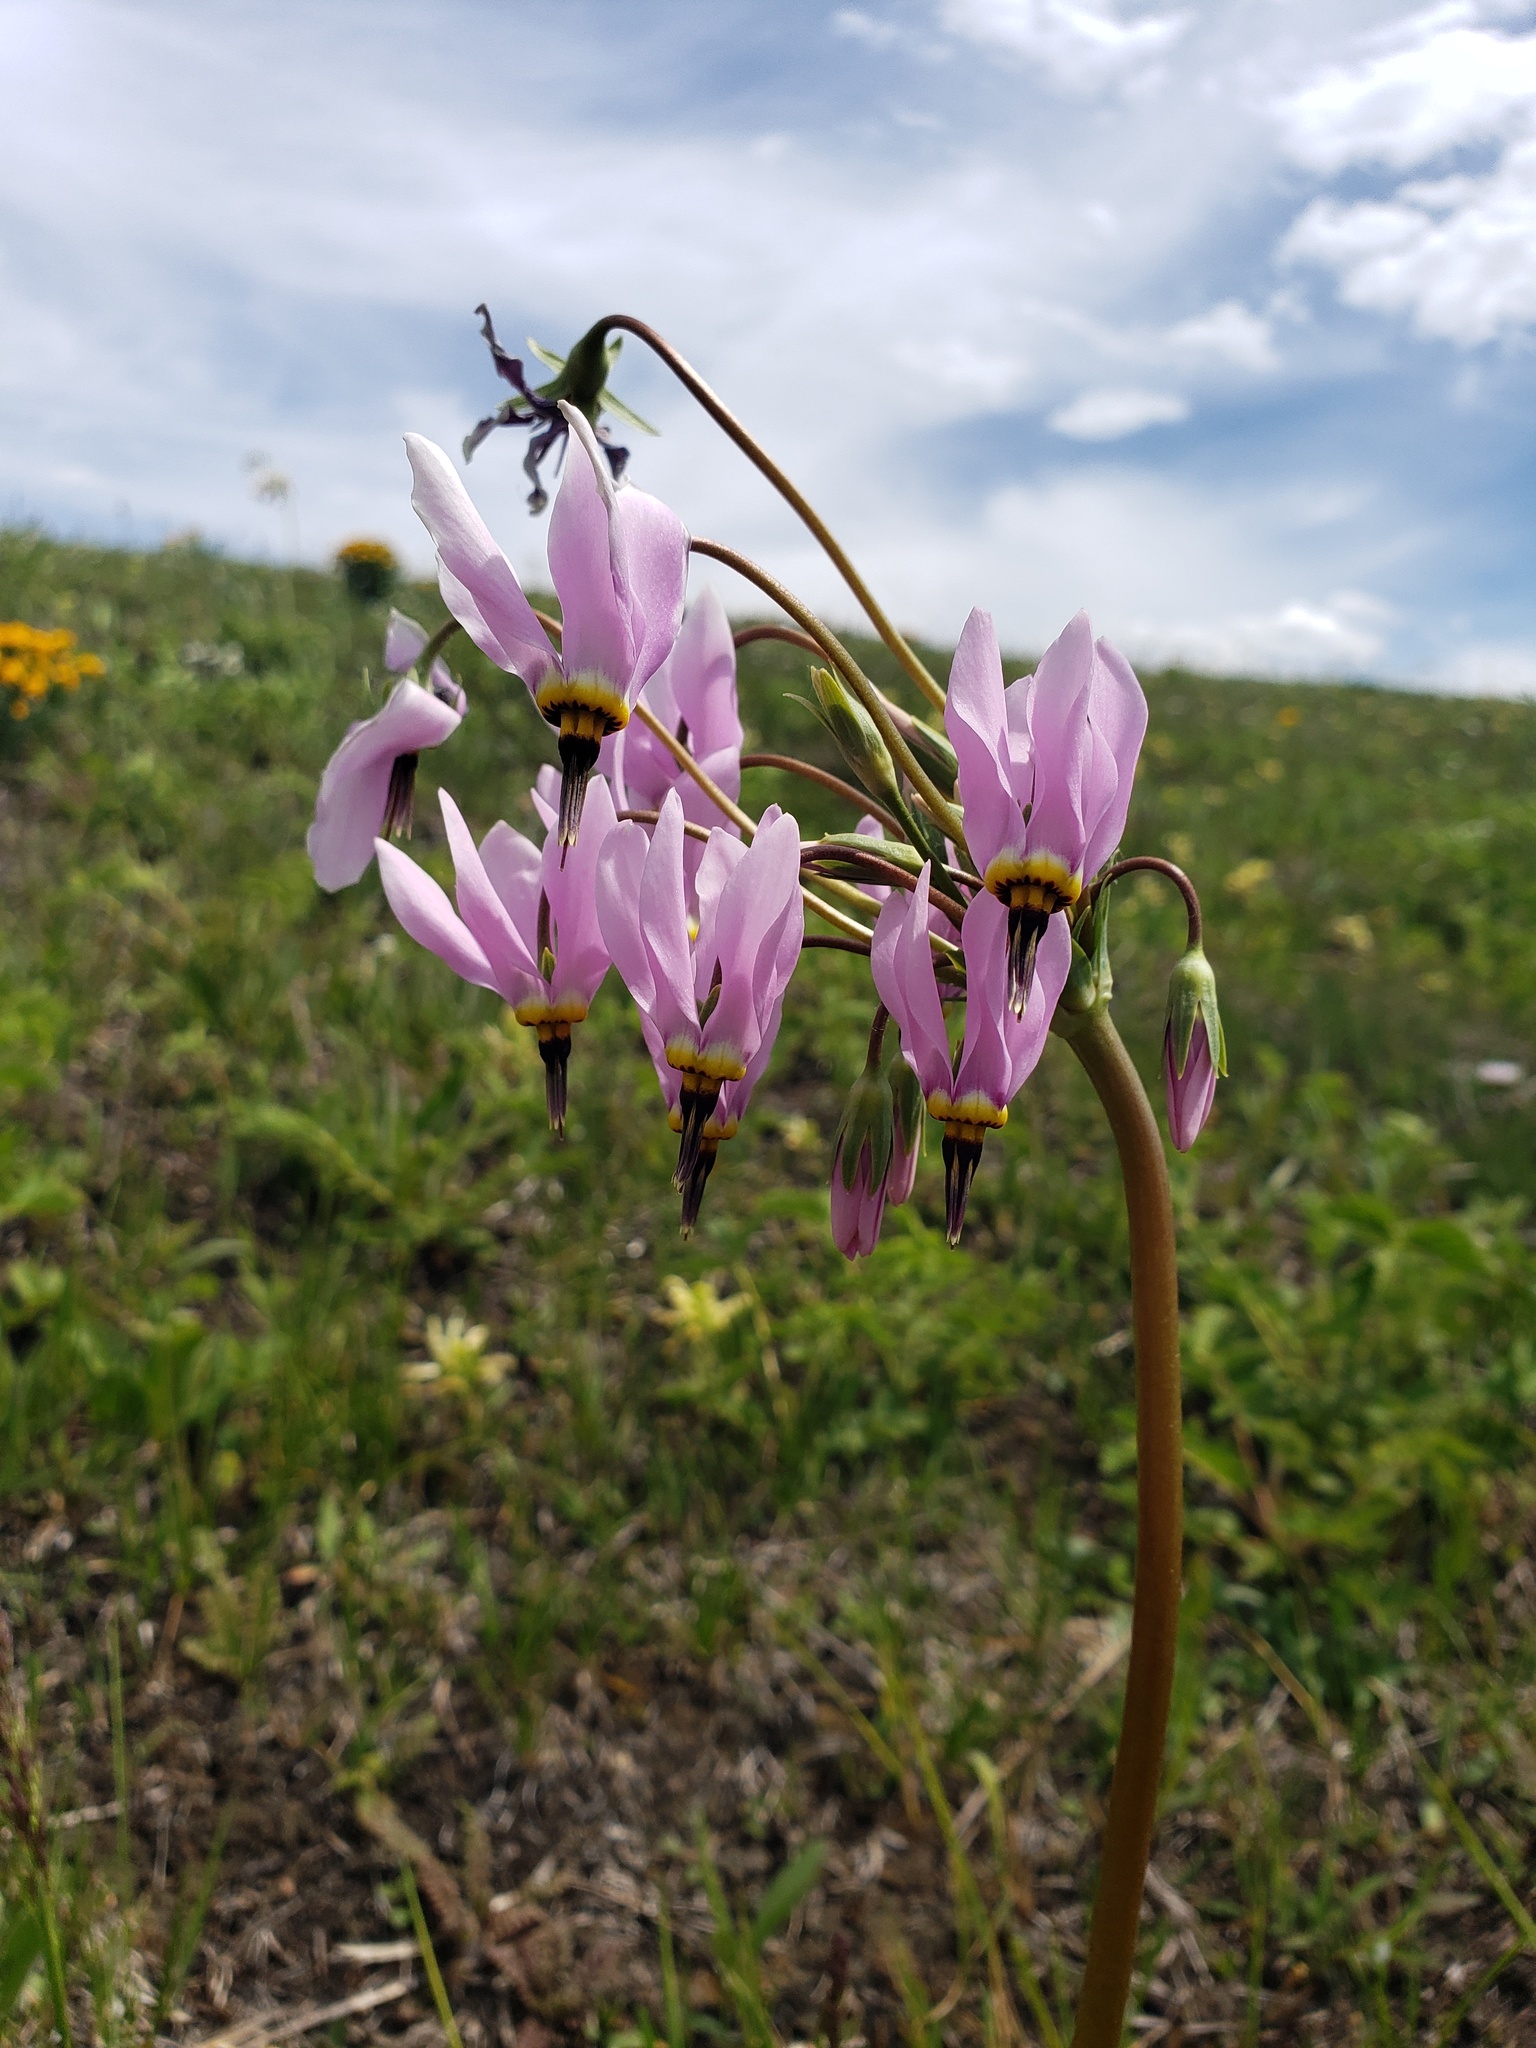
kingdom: Plantae
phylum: Tracheophyta
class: Magnoliopsida
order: Ericales
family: Primulaceae
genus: Dodecatheon
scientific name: Dodecatheon meadia
